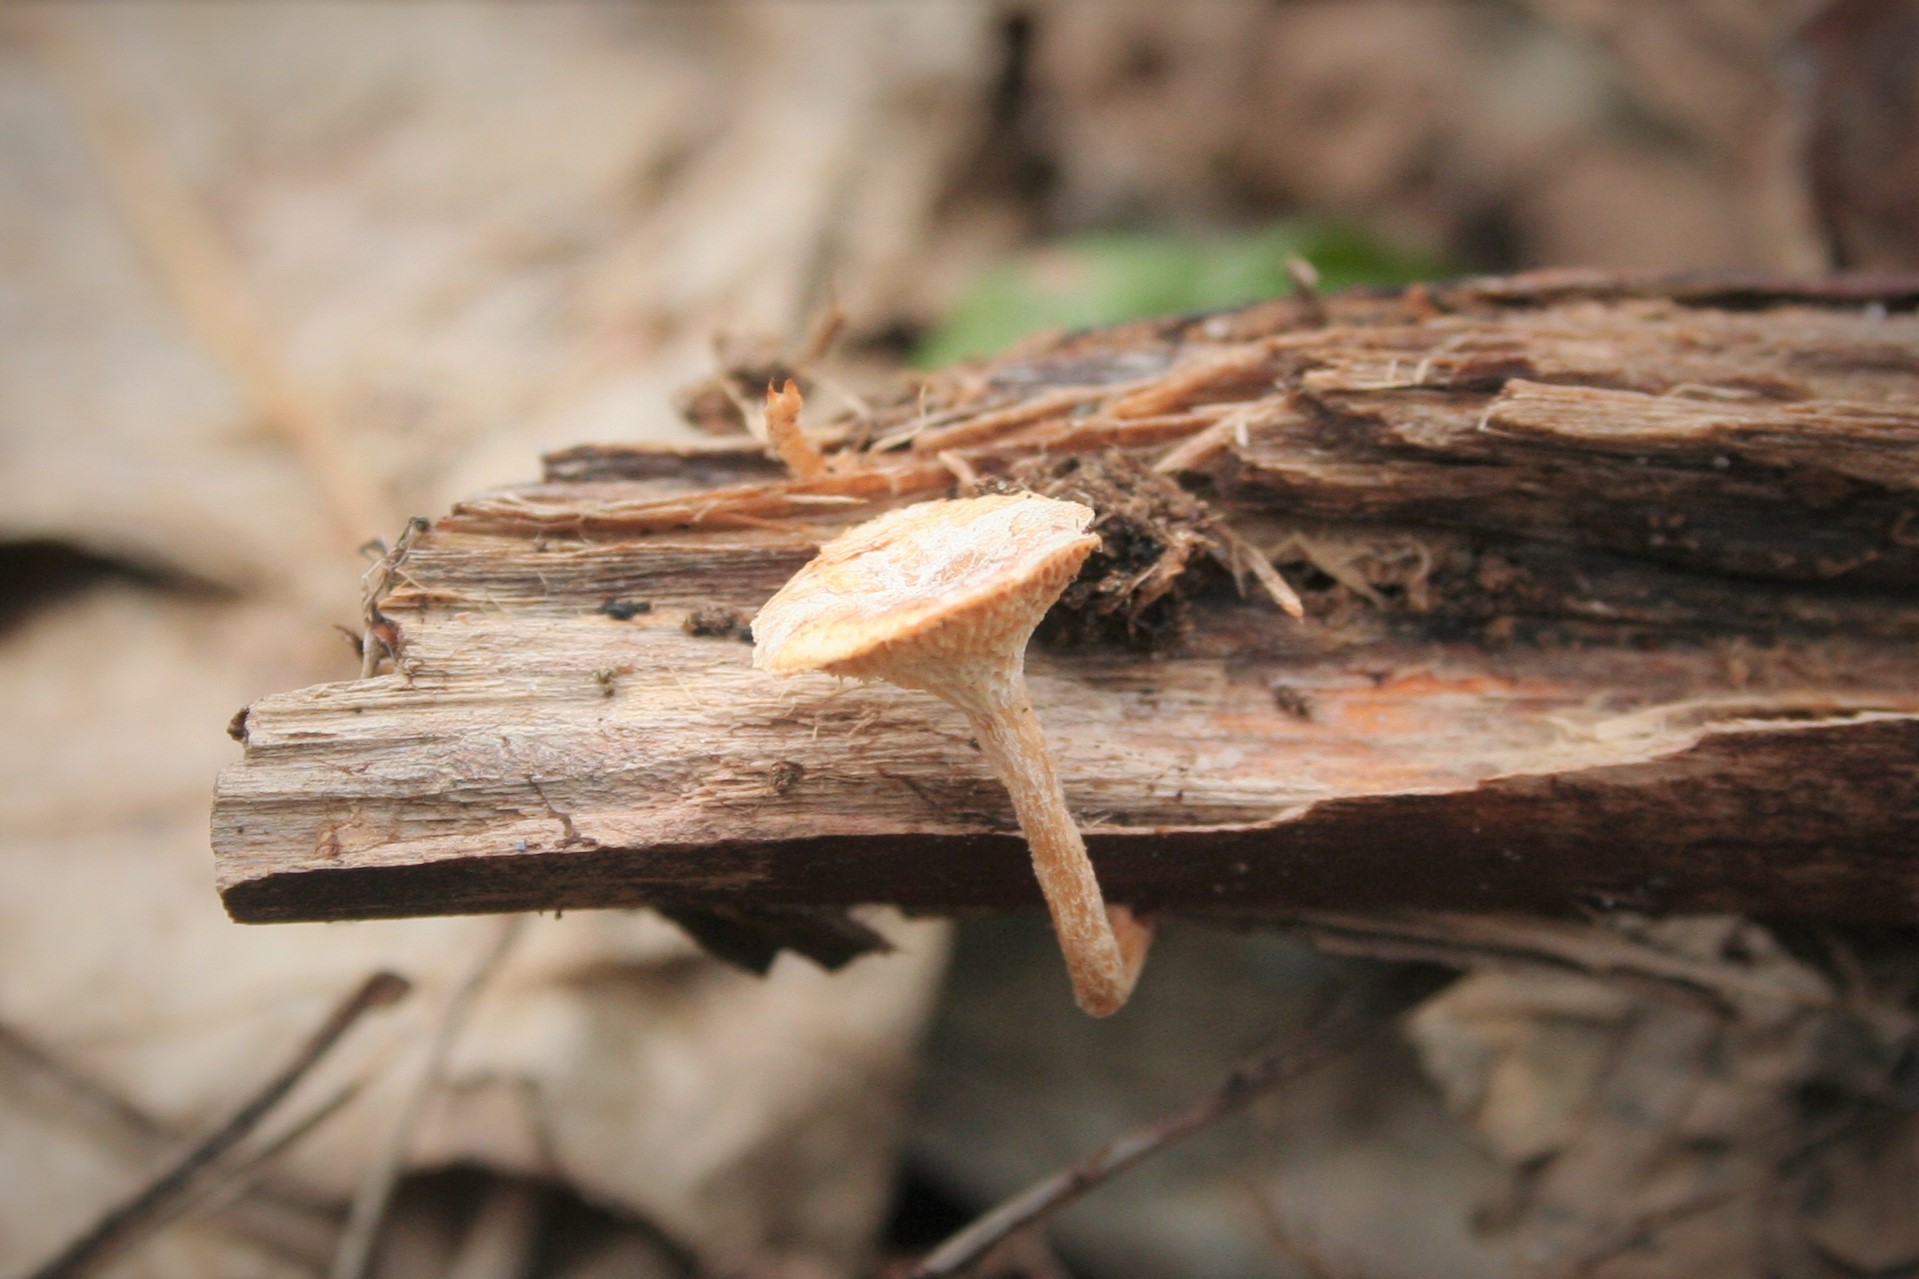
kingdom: Fungi
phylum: Basidiomycota
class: Agaricomycetes
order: Polyporales
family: Polyporaceae
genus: Lentinus
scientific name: Lentinus arcularius
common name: Spring polypore
